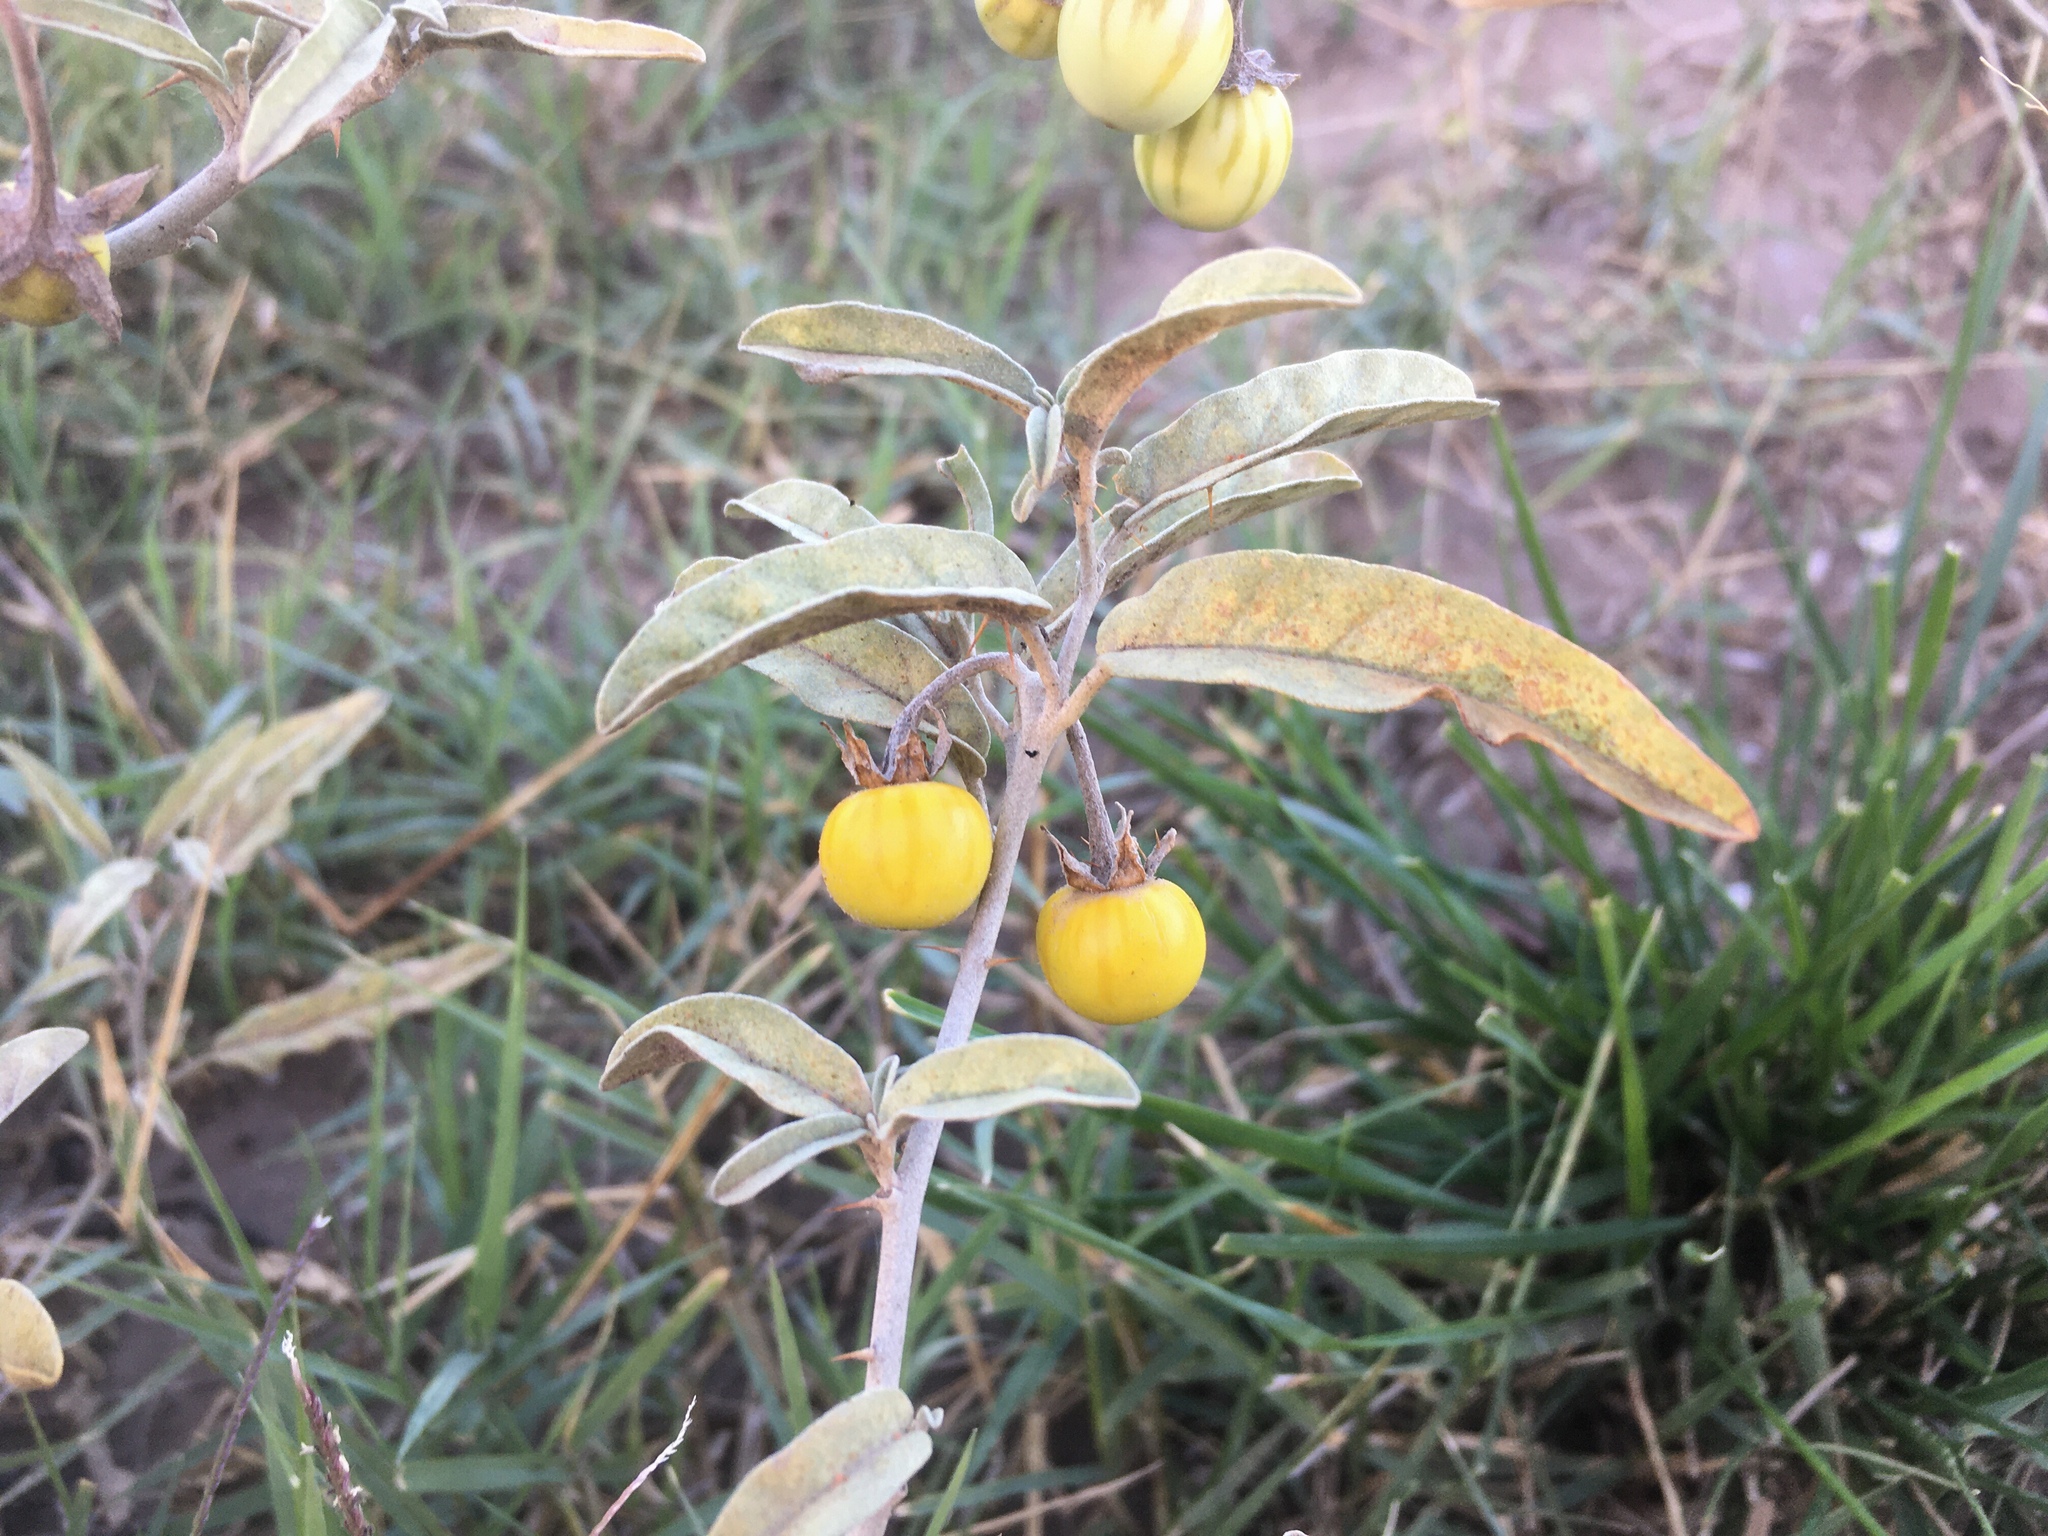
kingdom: Plantae
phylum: Tracheophyta
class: Magnoliopsida
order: Solanales
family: Solanaceae
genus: Solanum
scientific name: Solanum elaeagnifolium
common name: Silverleaf nightshade
